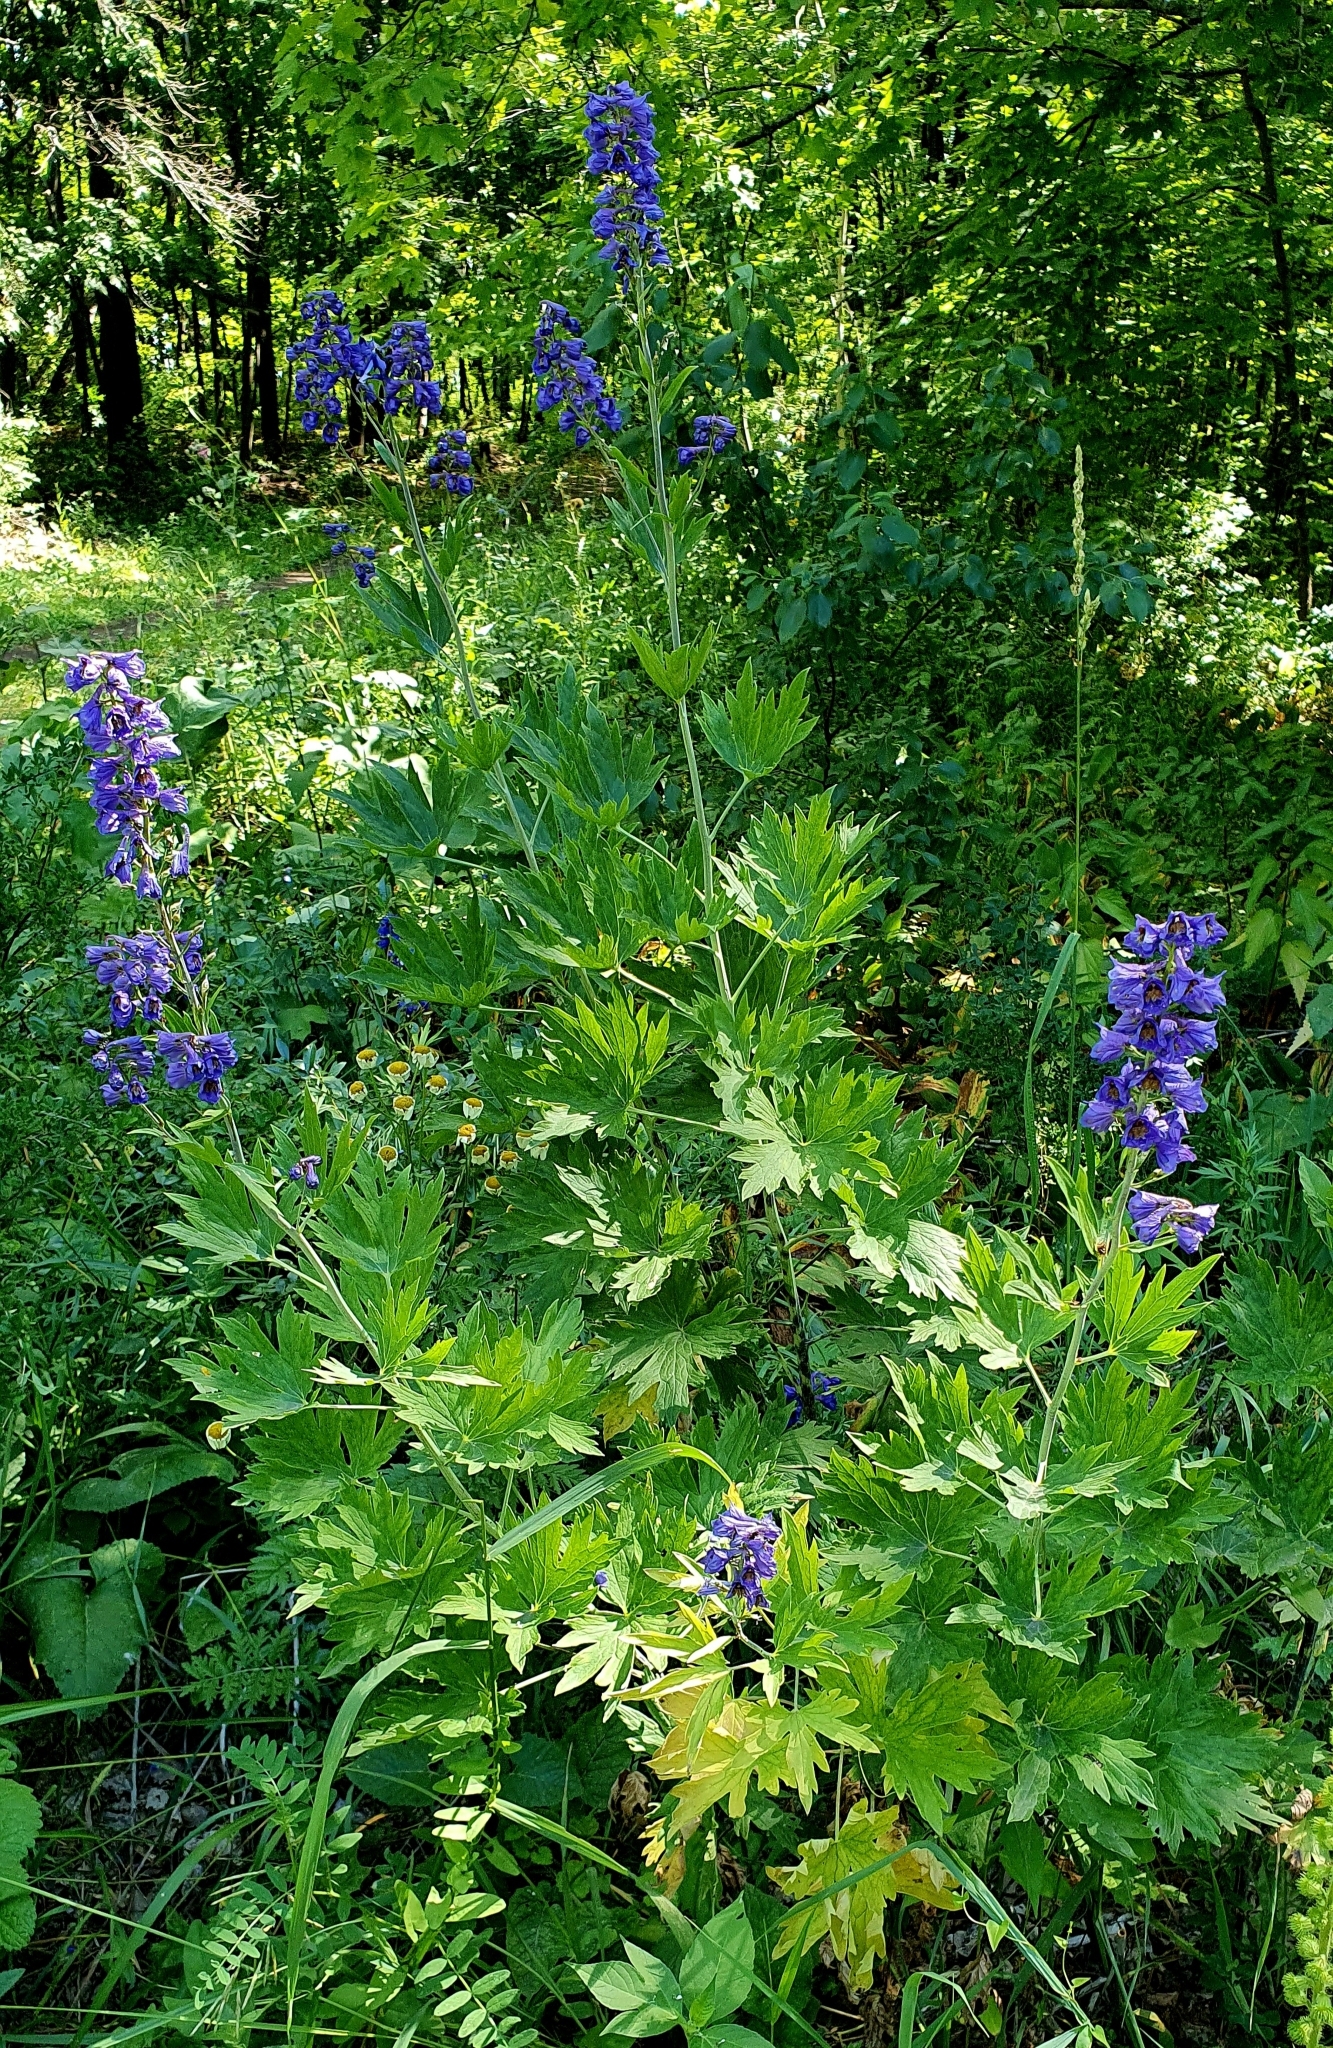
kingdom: Plantae
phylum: Tracheophyta
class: Magnoliopsida
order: Ranunculales
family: Ranunculaceae
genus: Delphinium
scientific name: Delphinium elatum
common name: Candle larkspur
